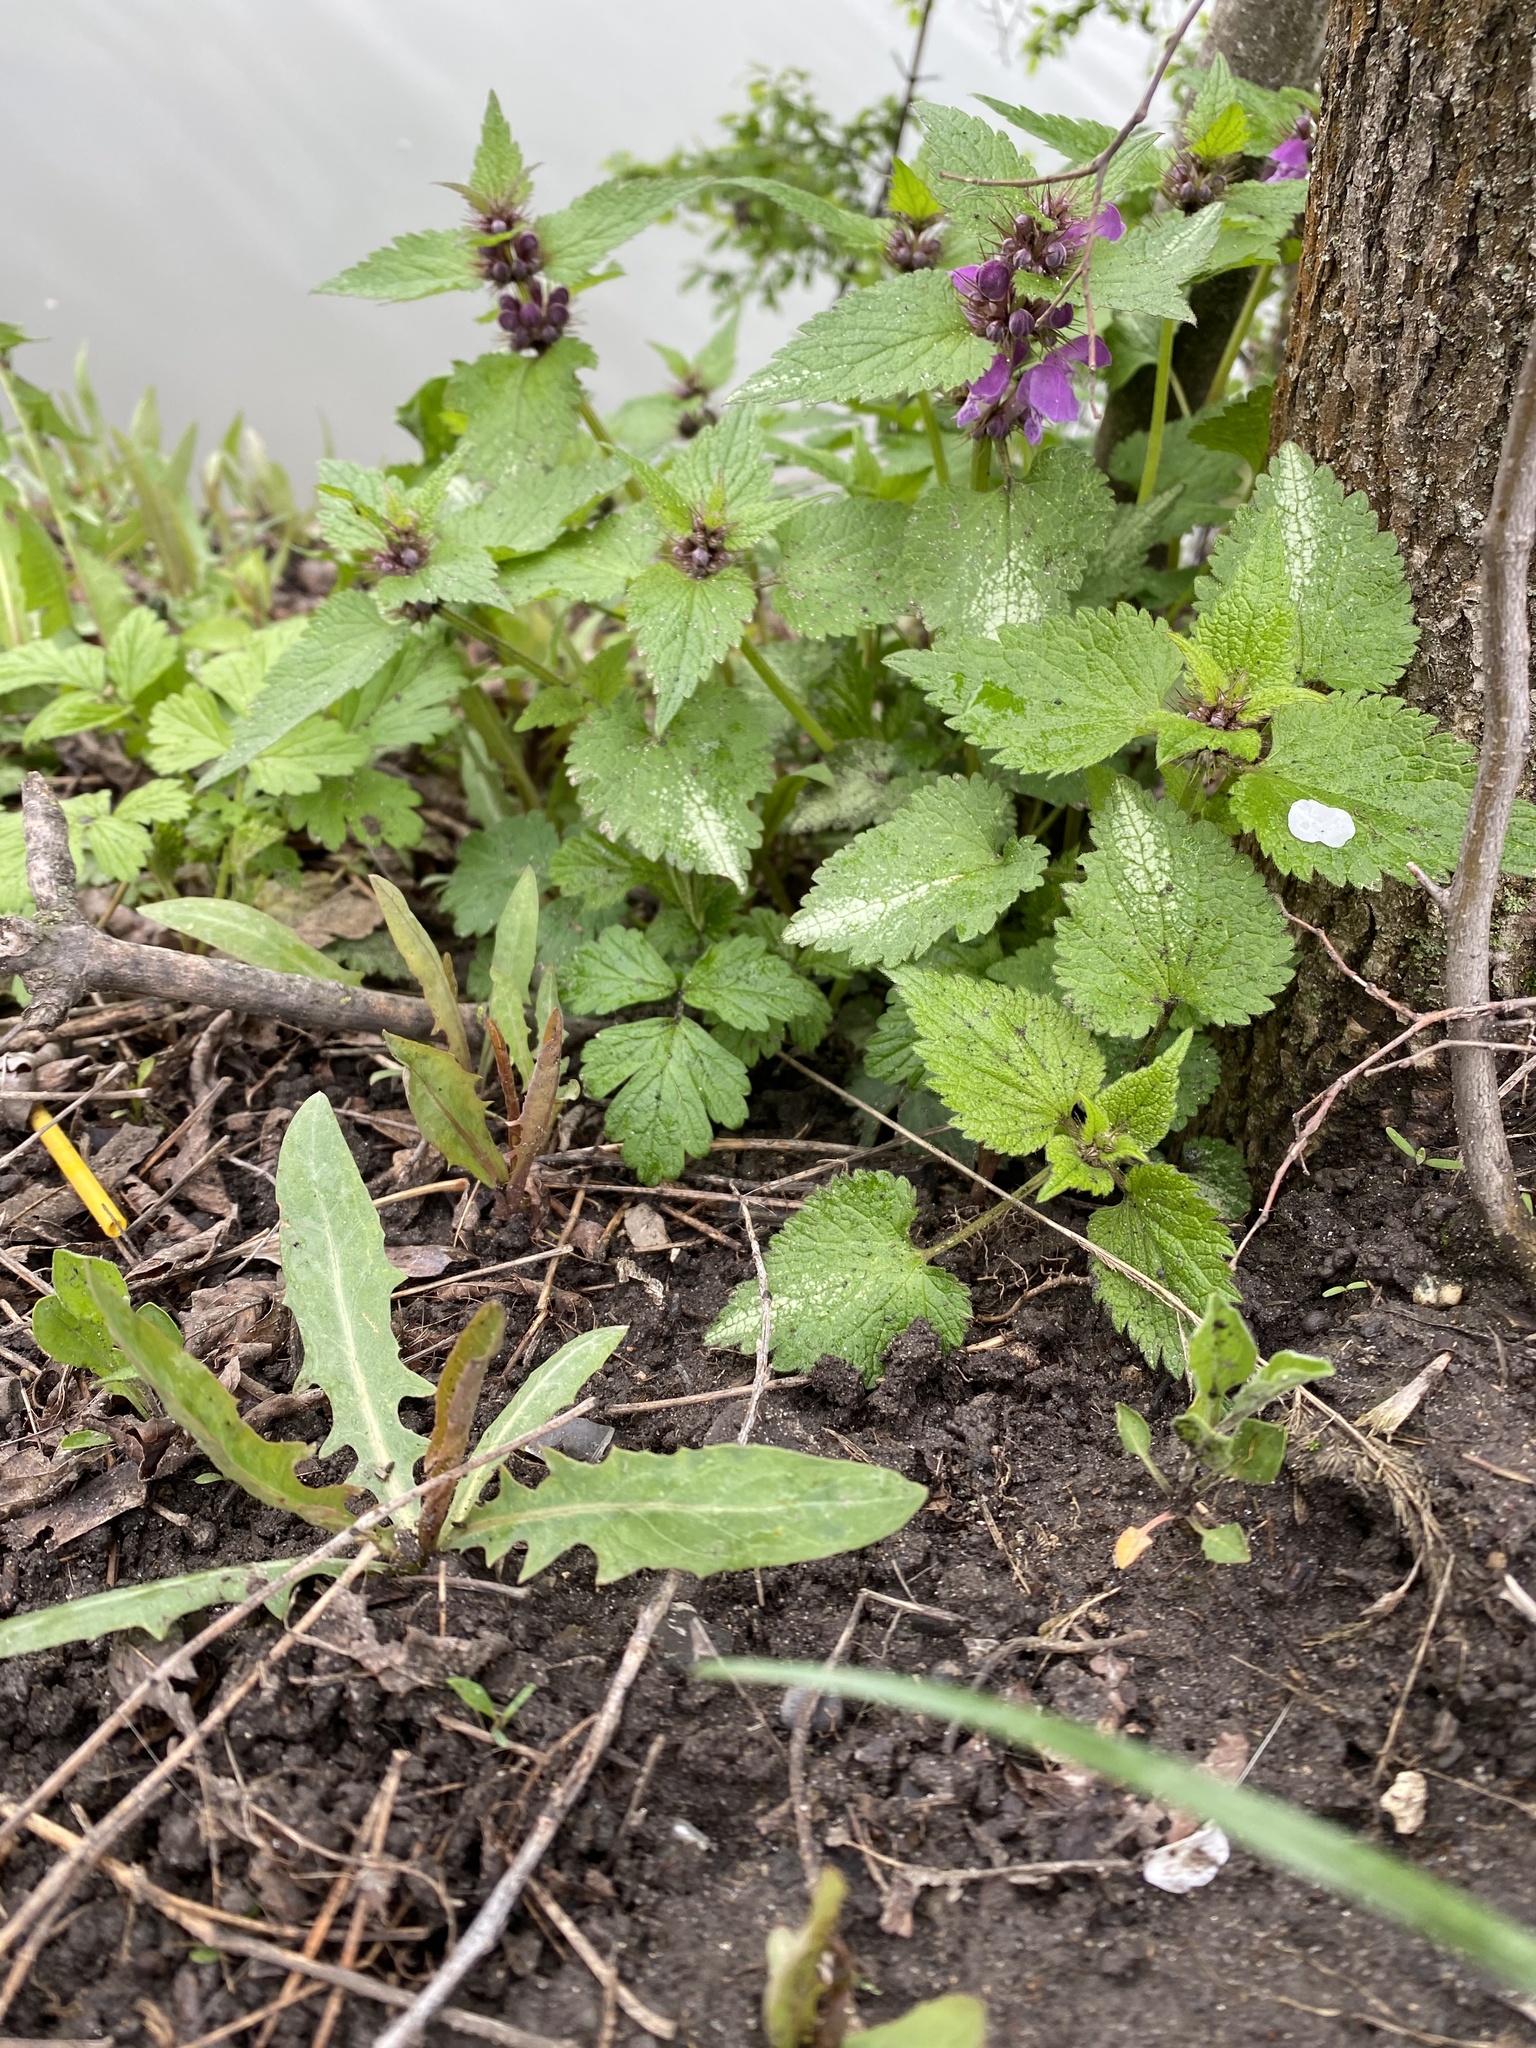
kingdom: Plantae
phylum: Tracheophyta
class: Magnoliopsida
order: Lamiales
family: Lamiaceae
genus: Lamium
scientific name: Lamium maculatum
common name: Spotted dead-nettle
